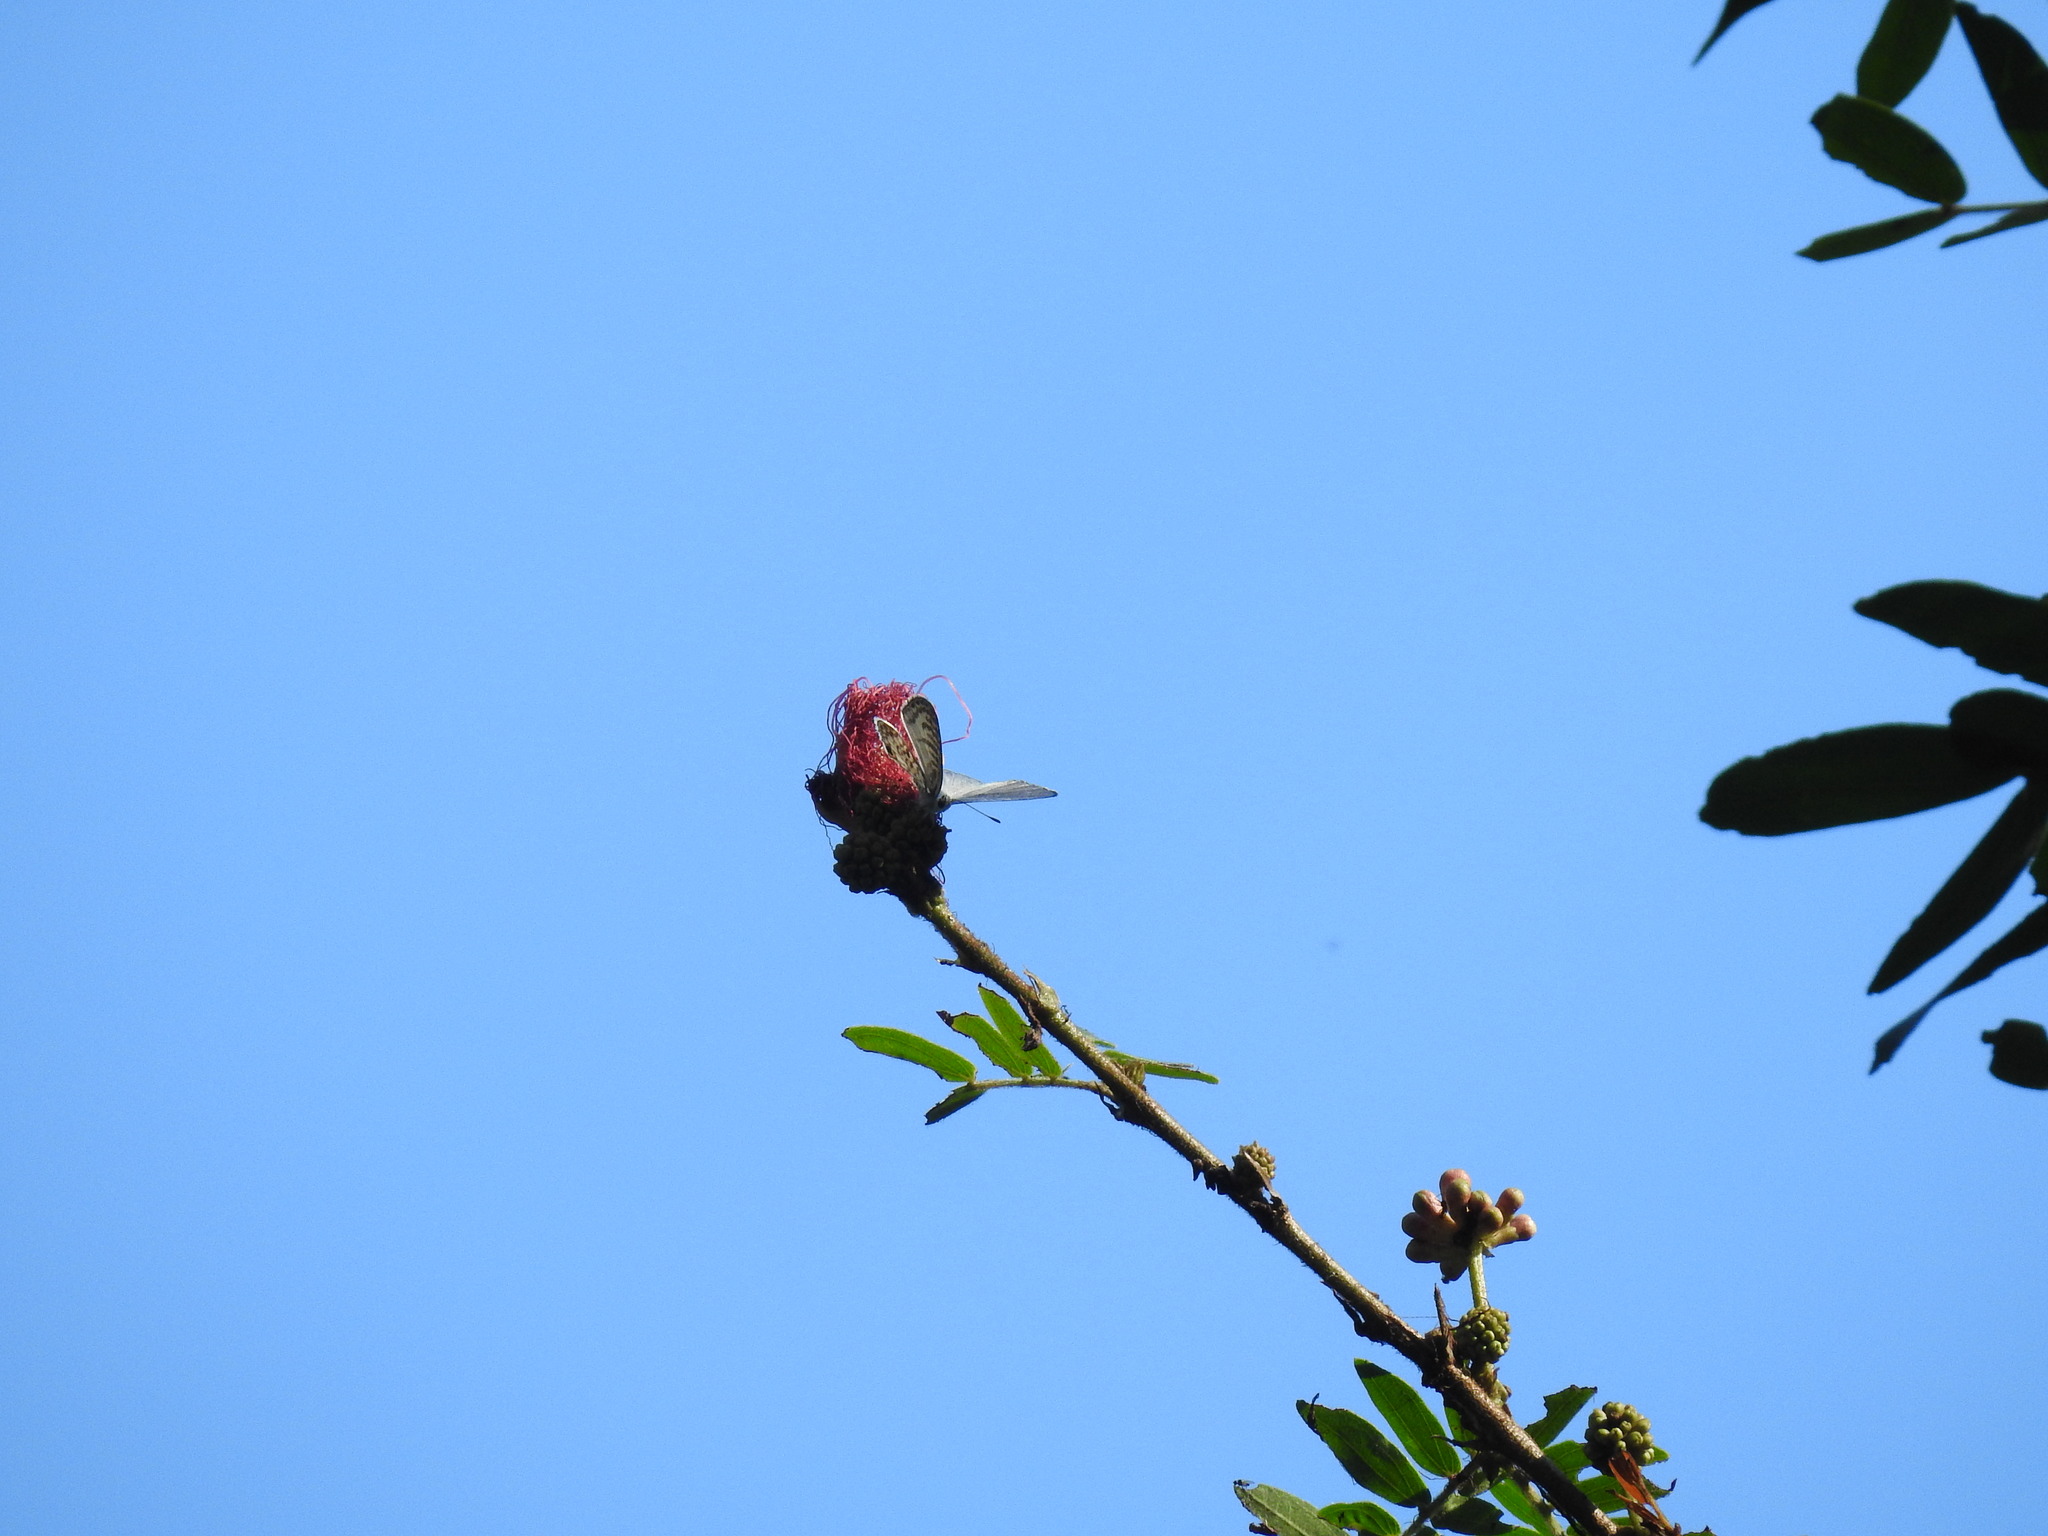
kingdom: Animalia
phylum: Arthropoda
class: Insecta
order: Lepidoptera
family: Lycaenidae
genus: Leptotes
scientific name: Leptotes cassius
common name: Cassius blue
